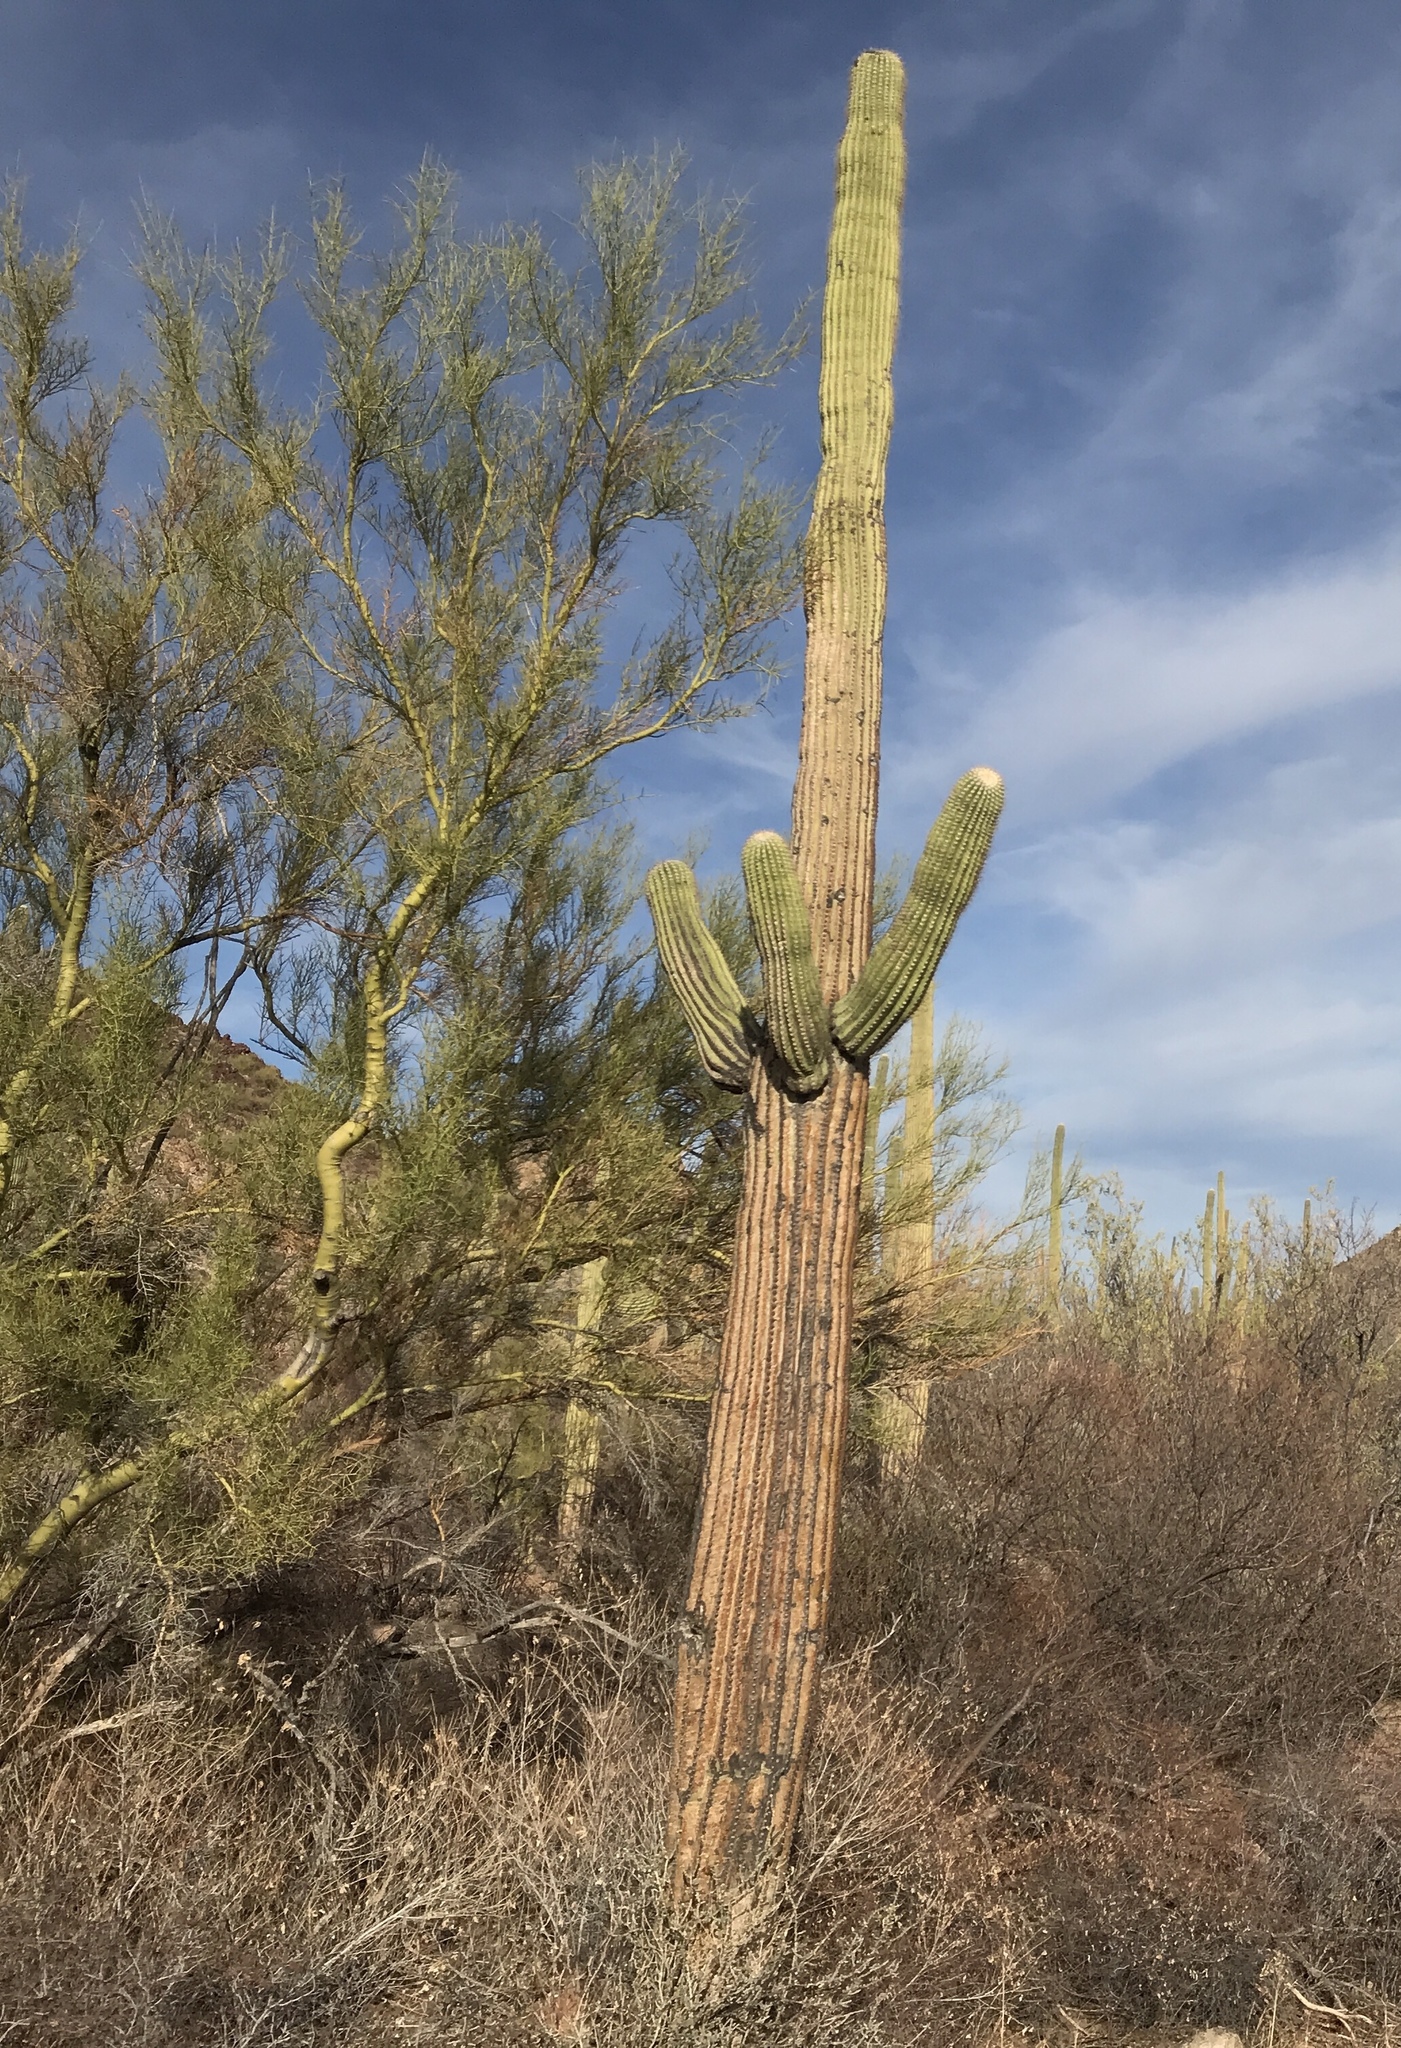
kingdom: Plantae
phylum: Tracheophyta
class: Magnoliopsida
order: Caryophyllales
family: Cactaceae
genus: Carnegiea
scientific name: Carnegiea gigantea
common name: Saguaro
